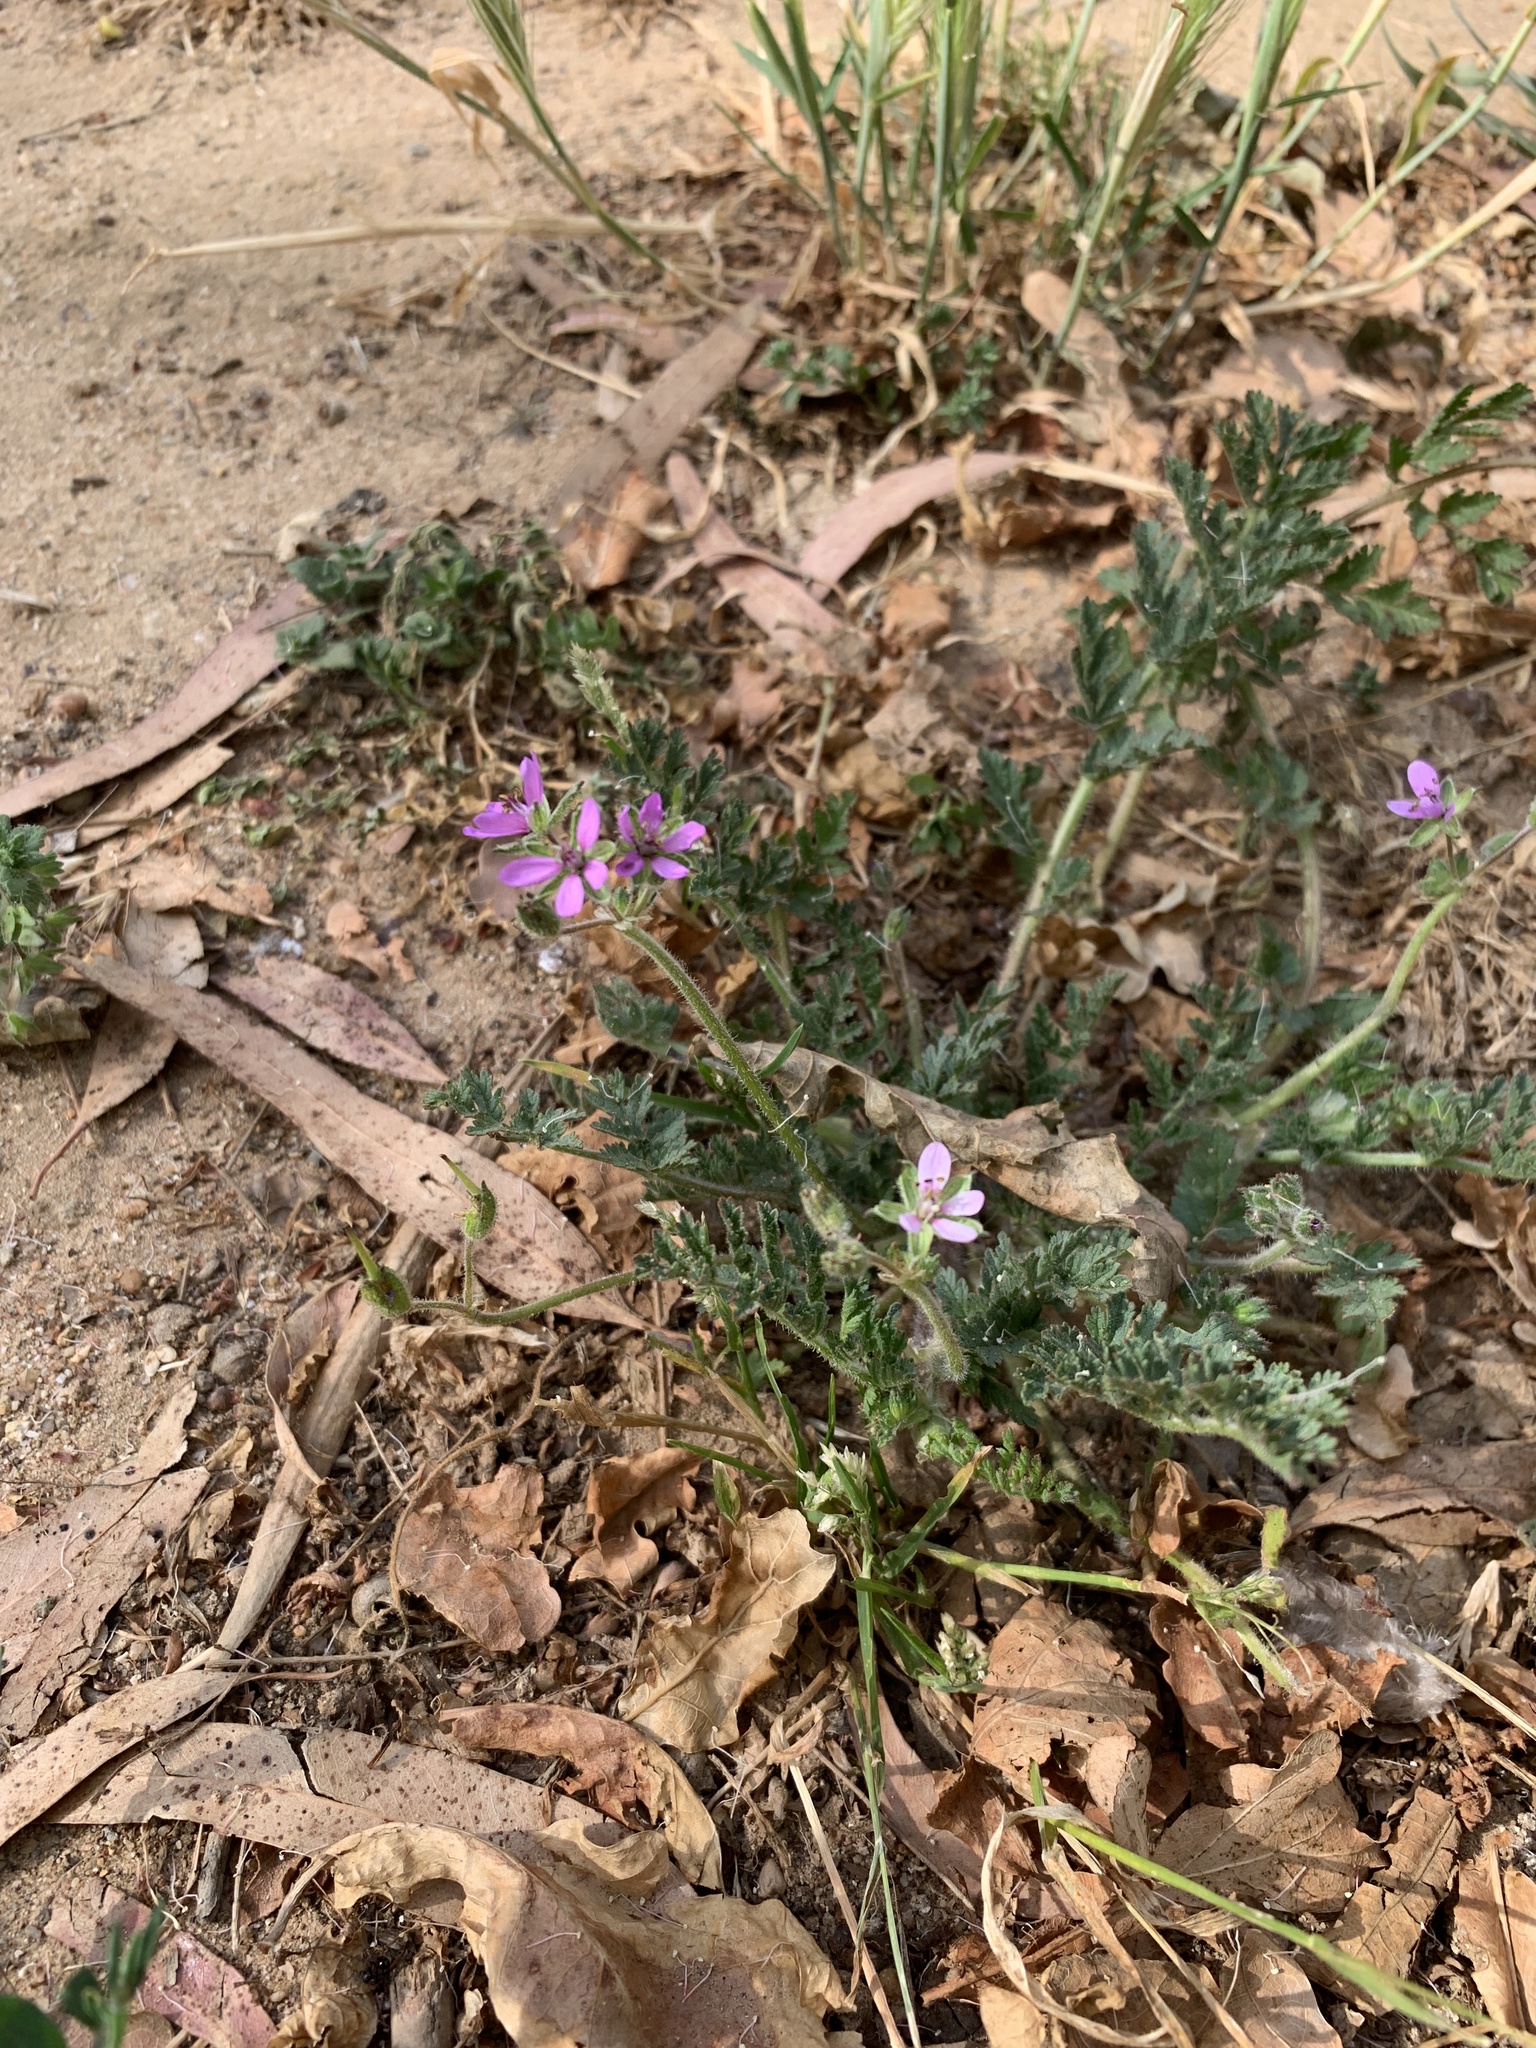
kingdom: Plantae
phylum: Tracheophyta
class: Magnoliopsida
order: Geraniales
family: Geraniaceae
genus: Erodium
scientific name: Erodium moschatum
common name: Musk stork's-bill
